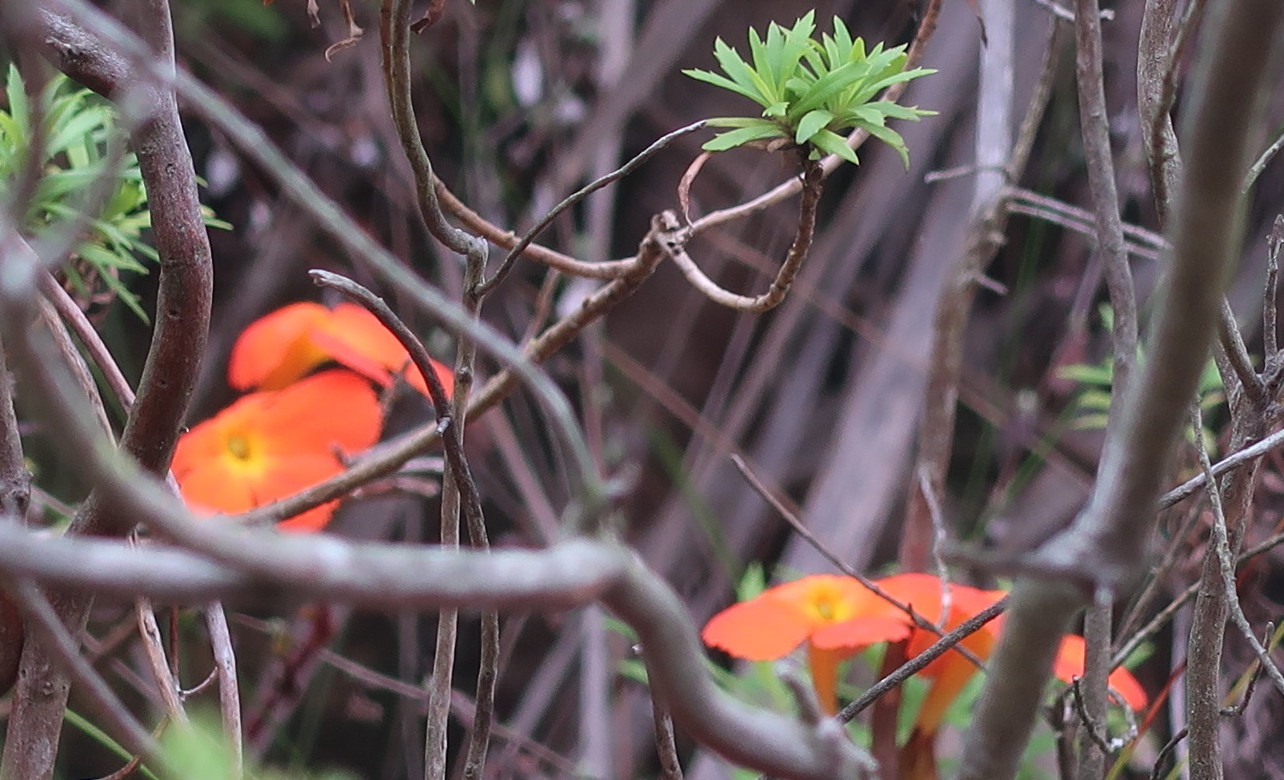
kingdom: Plantae
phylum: Tracheophyta
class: Magnoliopsida
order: Lamiales
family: Orobanchaceae
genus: Harveya
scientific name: Harveya stenosiphon
